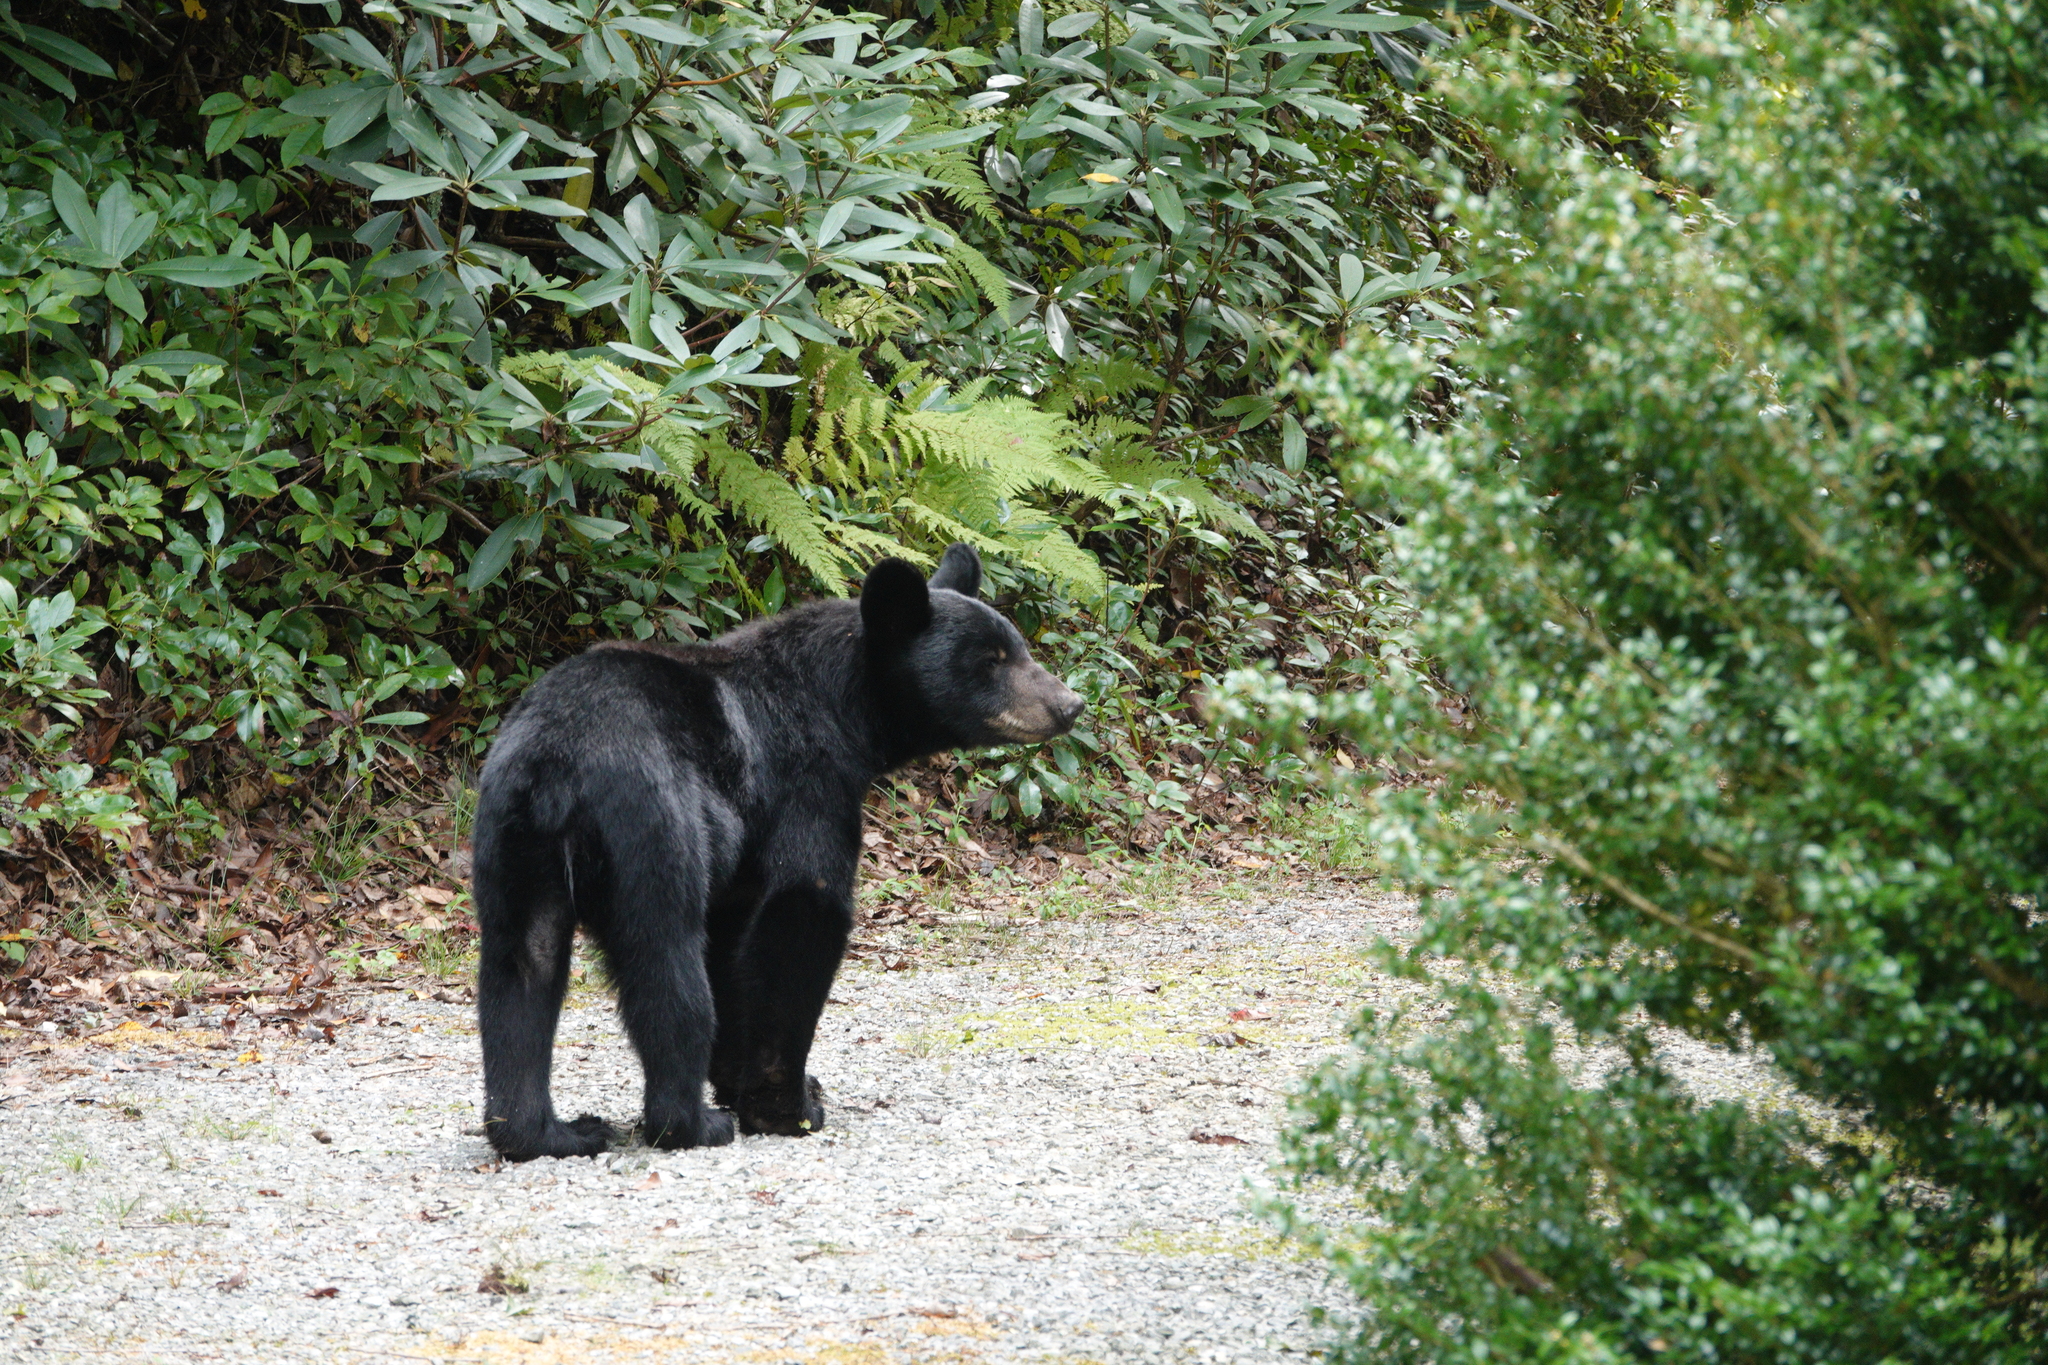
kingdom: Animalia
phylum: Chordata
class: Mammalia
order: Carnivora
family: Ursidae
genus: Ursus
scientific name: Ursus americanus
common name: American black bear
